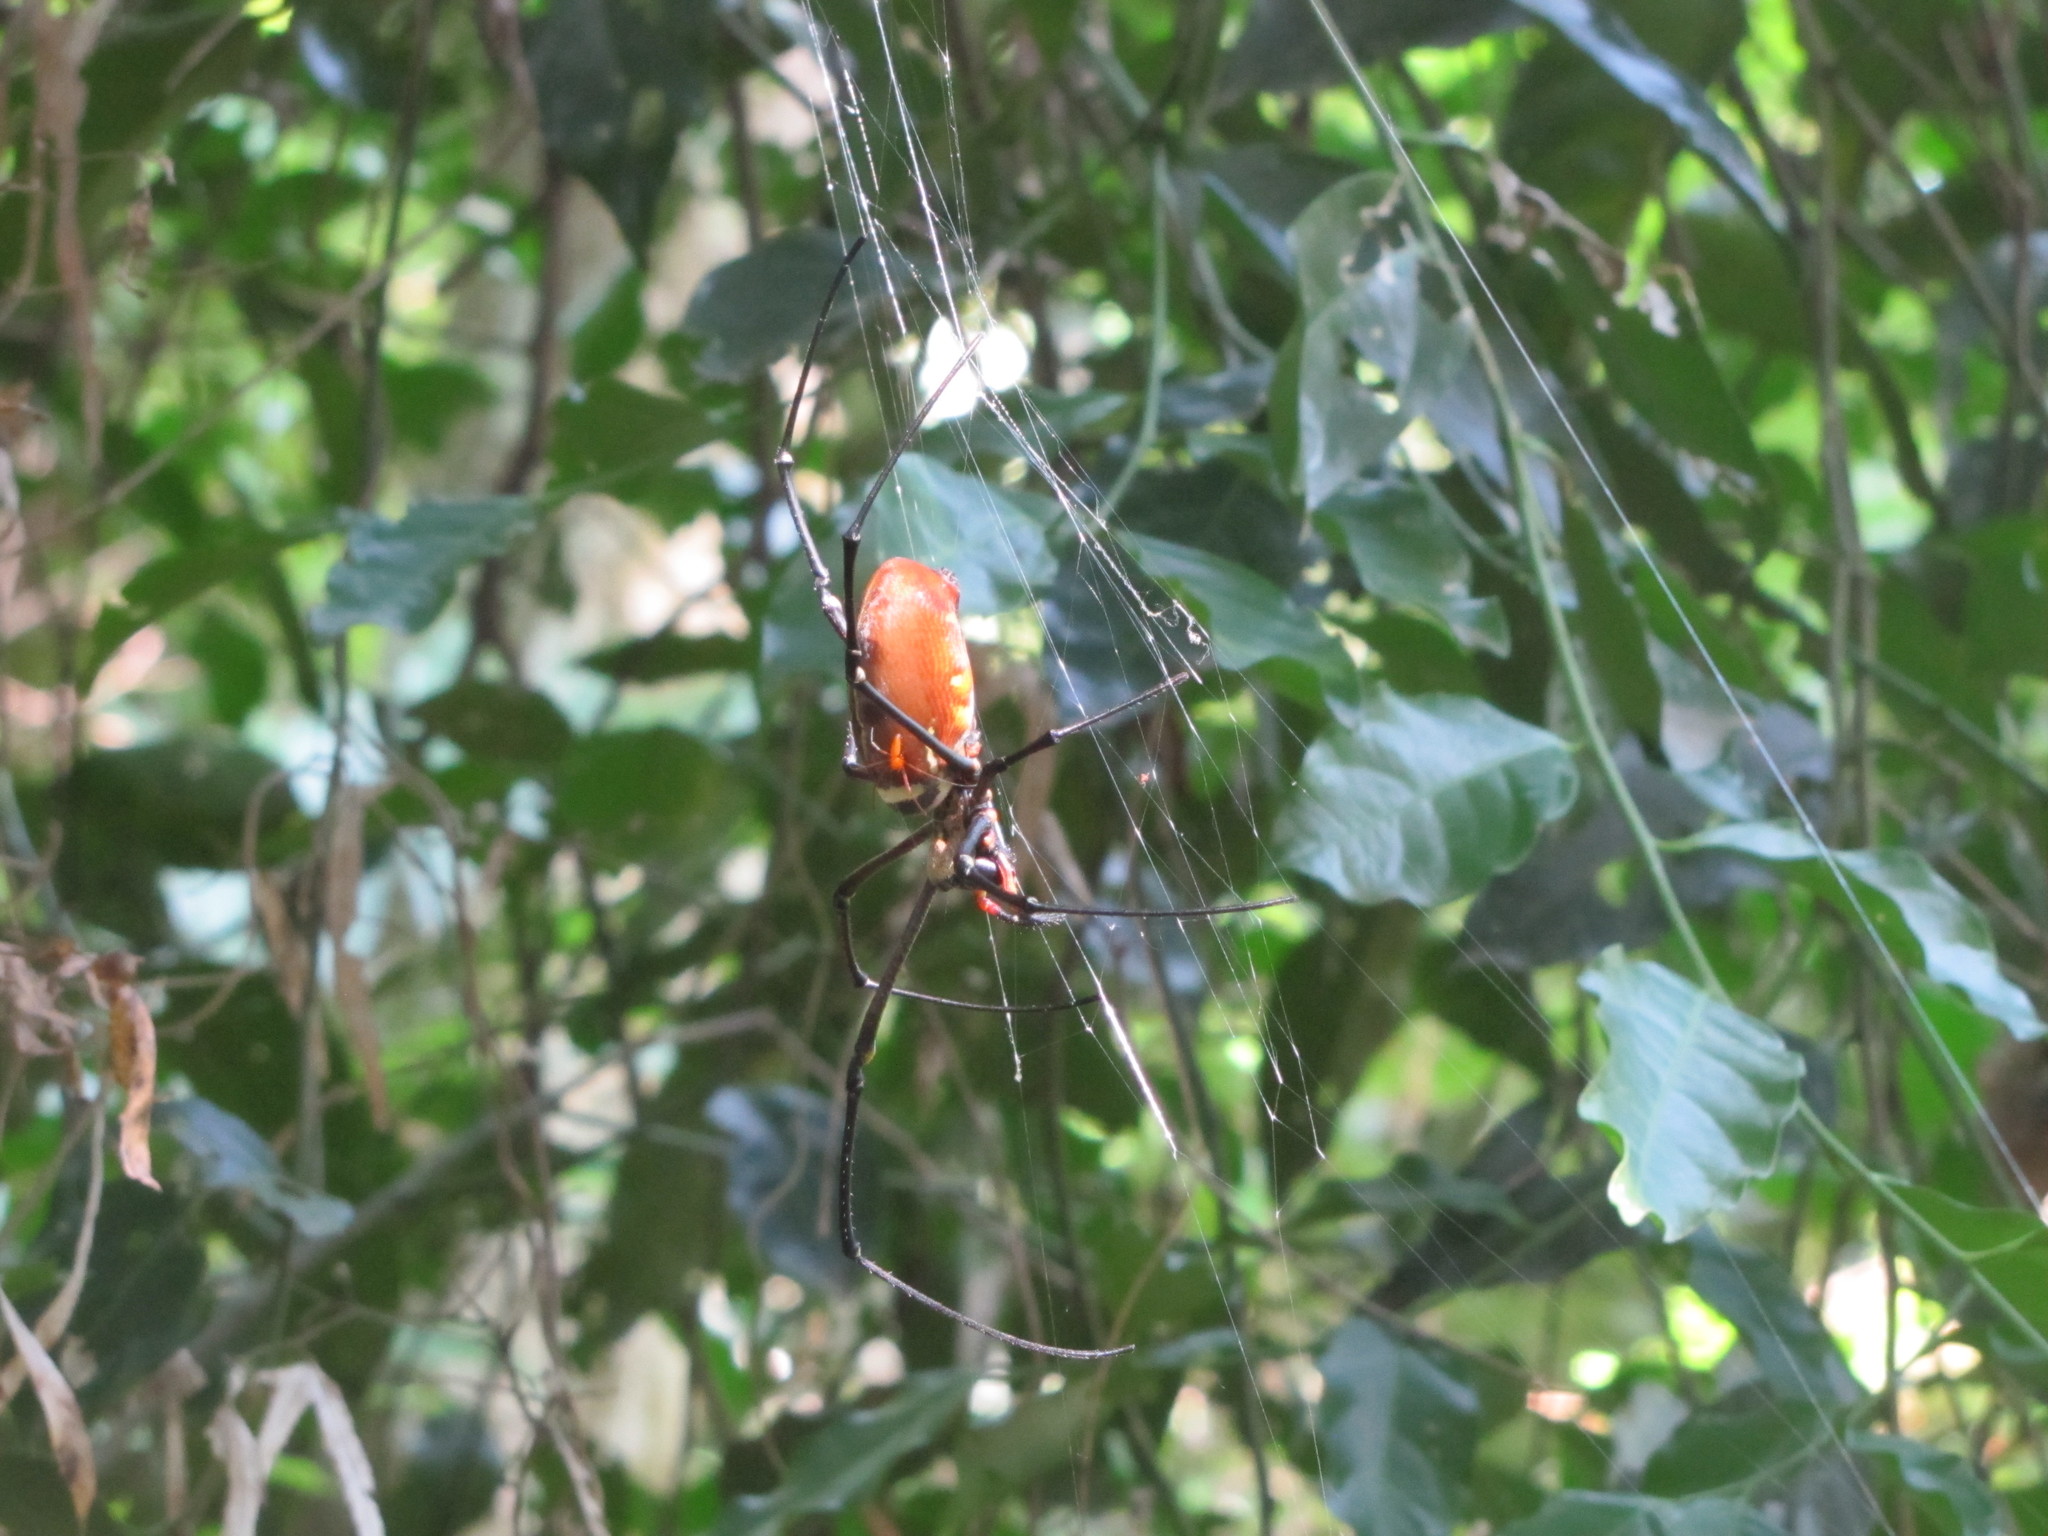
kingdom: Animalia
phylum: Arthropoda
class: Arachnida
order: Araneae
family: Araneidae
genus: Nephila
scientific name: Nephila pilipes
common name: Giant golden orb weaver
